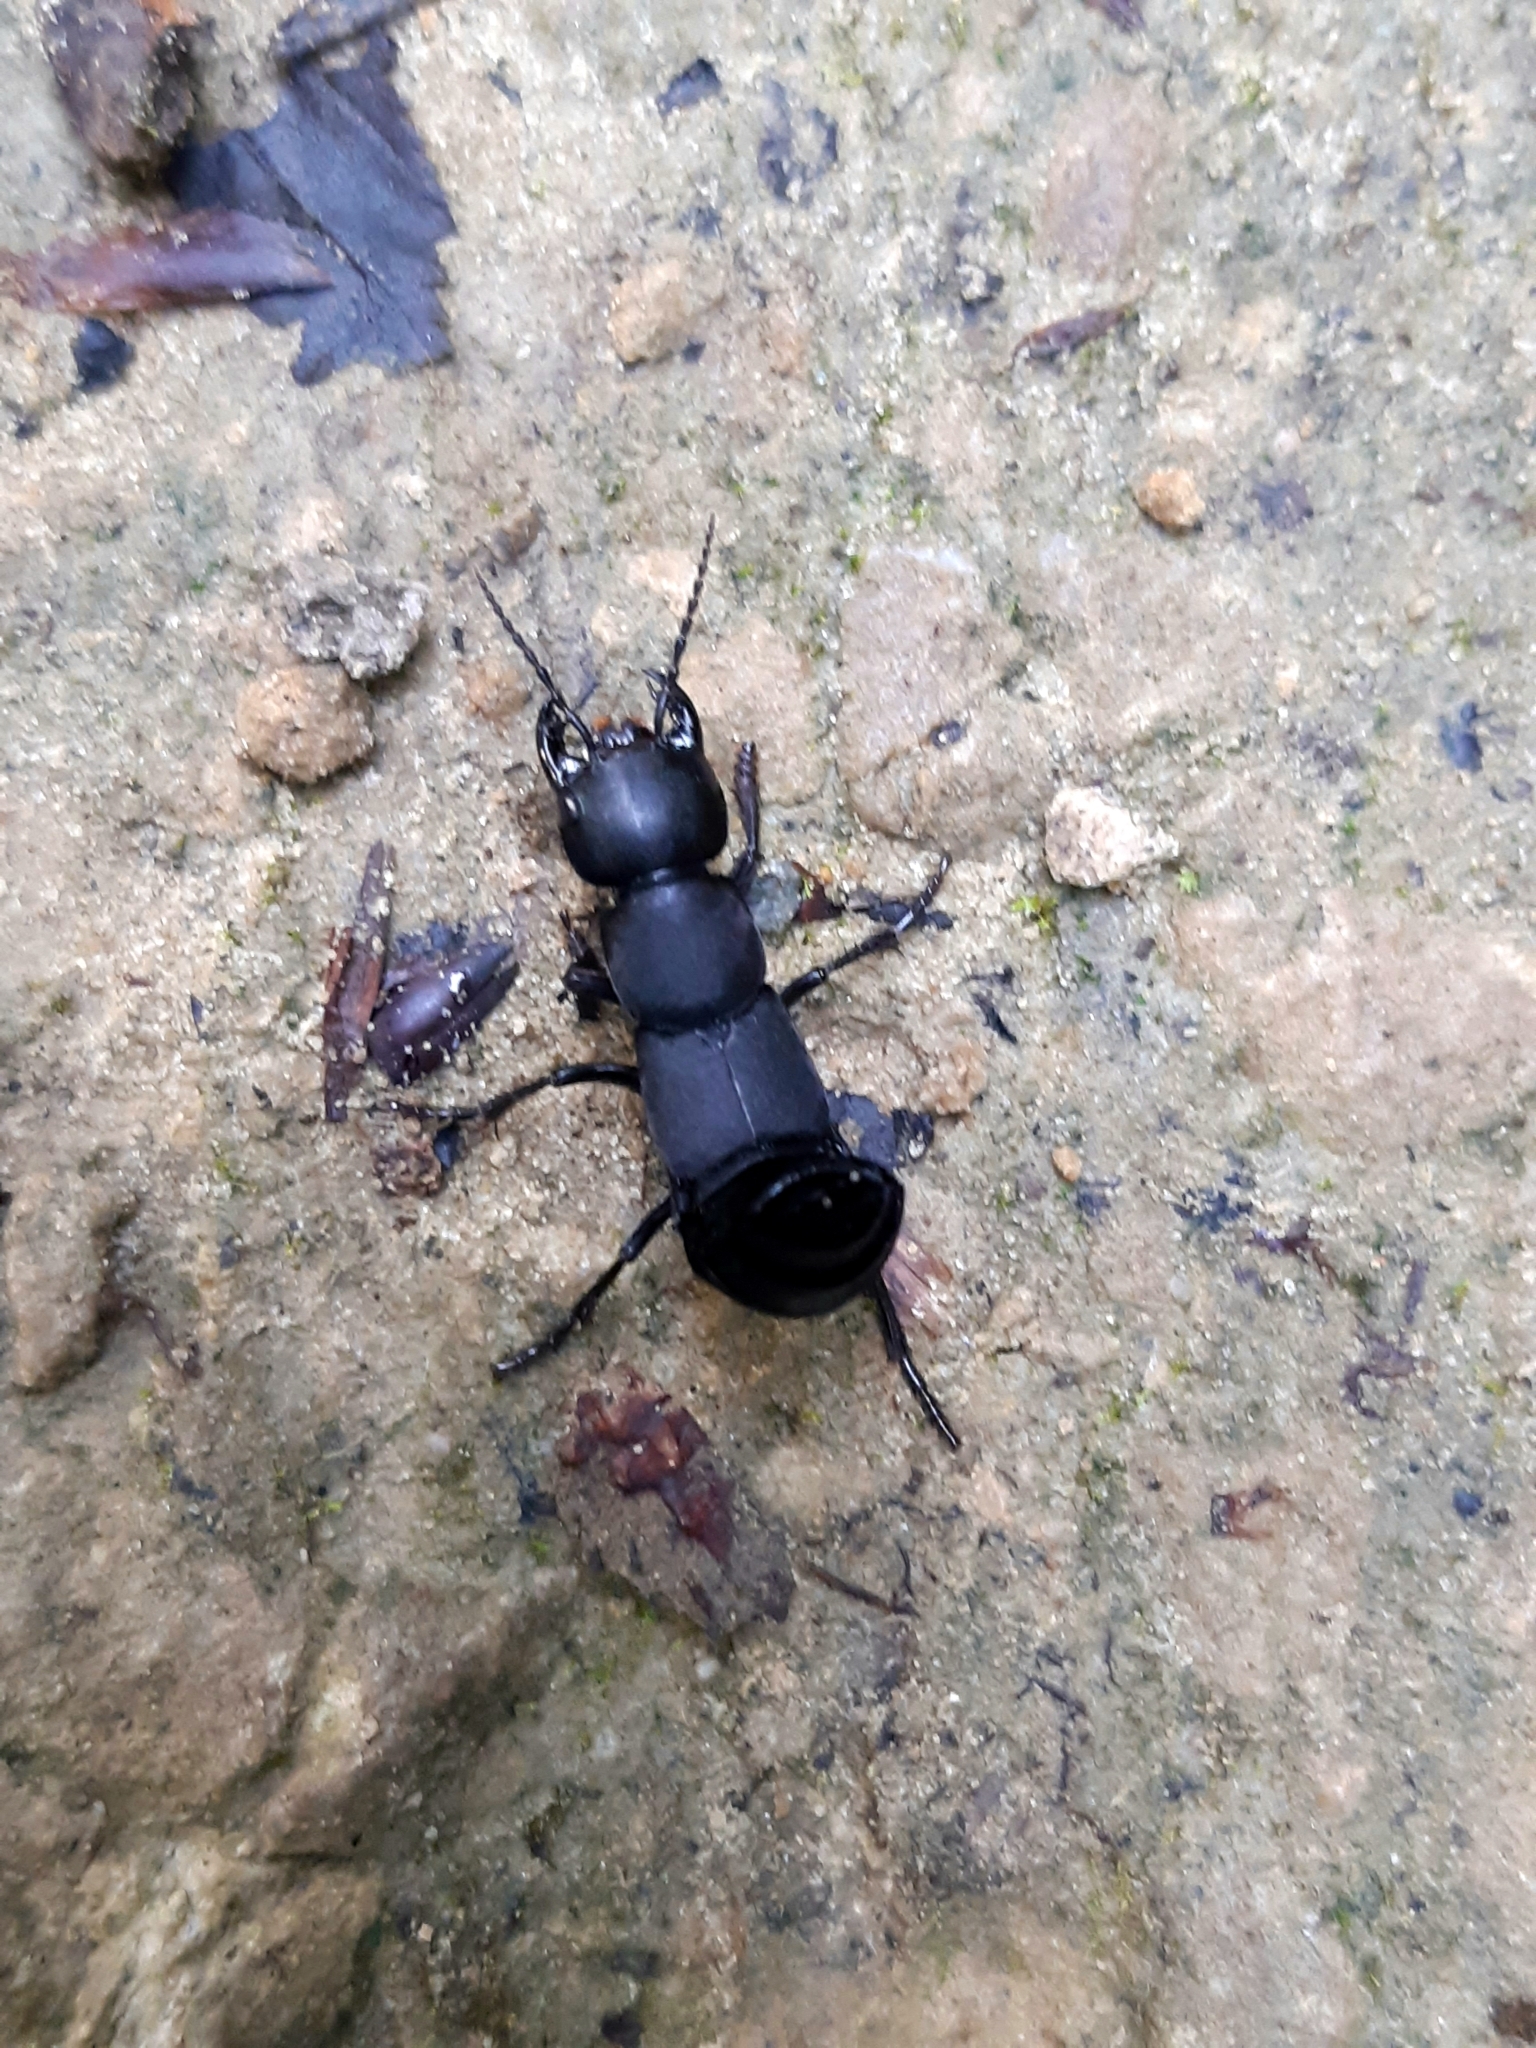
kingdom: Animalia
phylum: Arthropoda
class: Insecta
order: Coleoptera
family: Staphylinidae
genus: Ocypus
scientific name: Ocypus olens
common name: Devil's coach-horse
